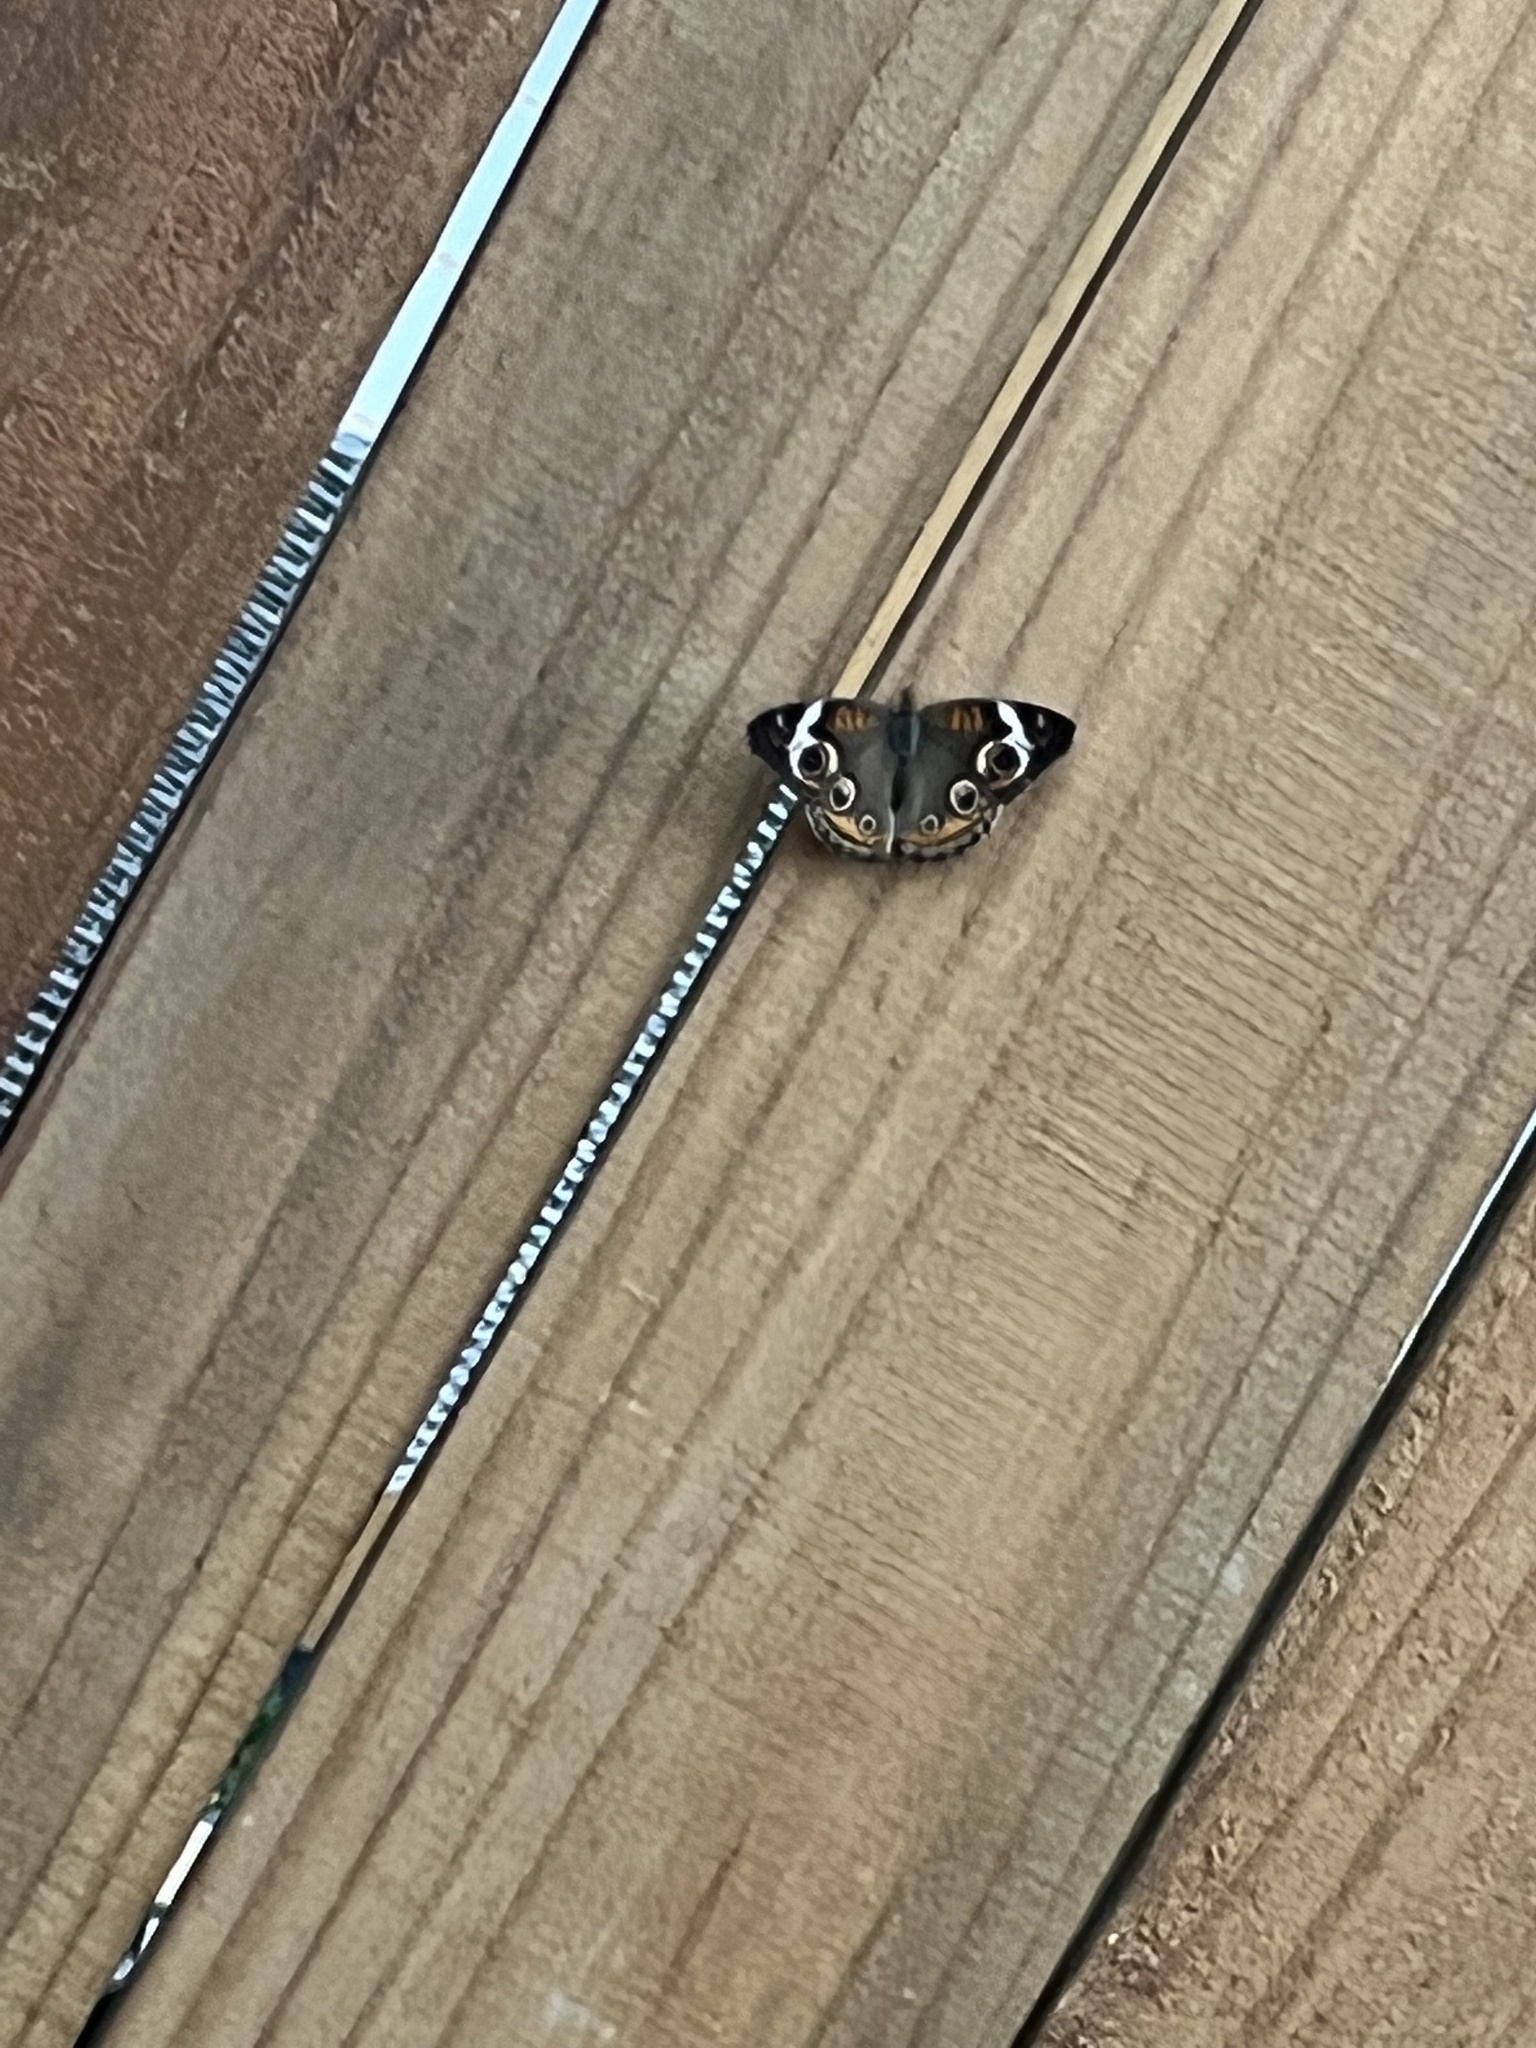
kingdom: Animalia
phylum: Arthropoda
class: Insecta
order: Lepidoptera
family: Nymphalidae
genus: Junonia
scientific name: Junonia coenia
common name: Common buckeye
